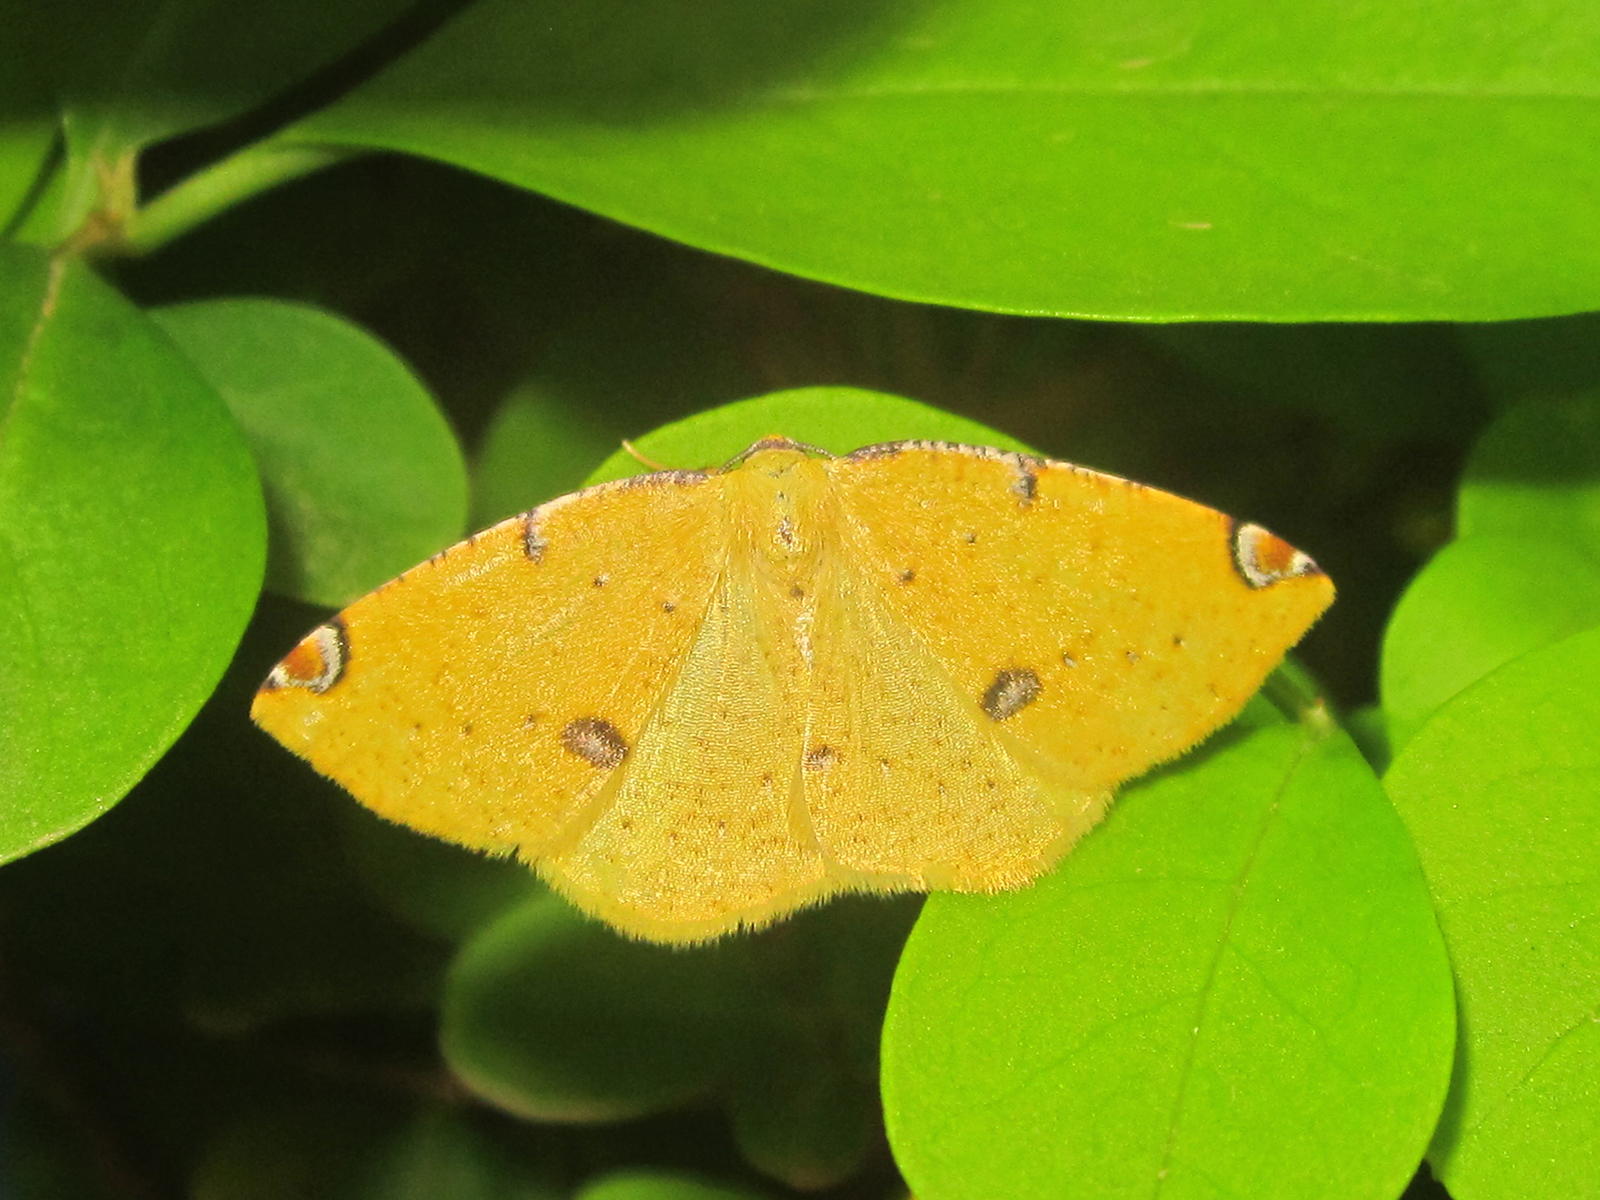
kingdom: Animalia
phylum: Arthropoda
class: Insecta
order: Lepidoptera
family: Geometridae
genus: Perusia
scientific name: Perusia aurantiacaria
